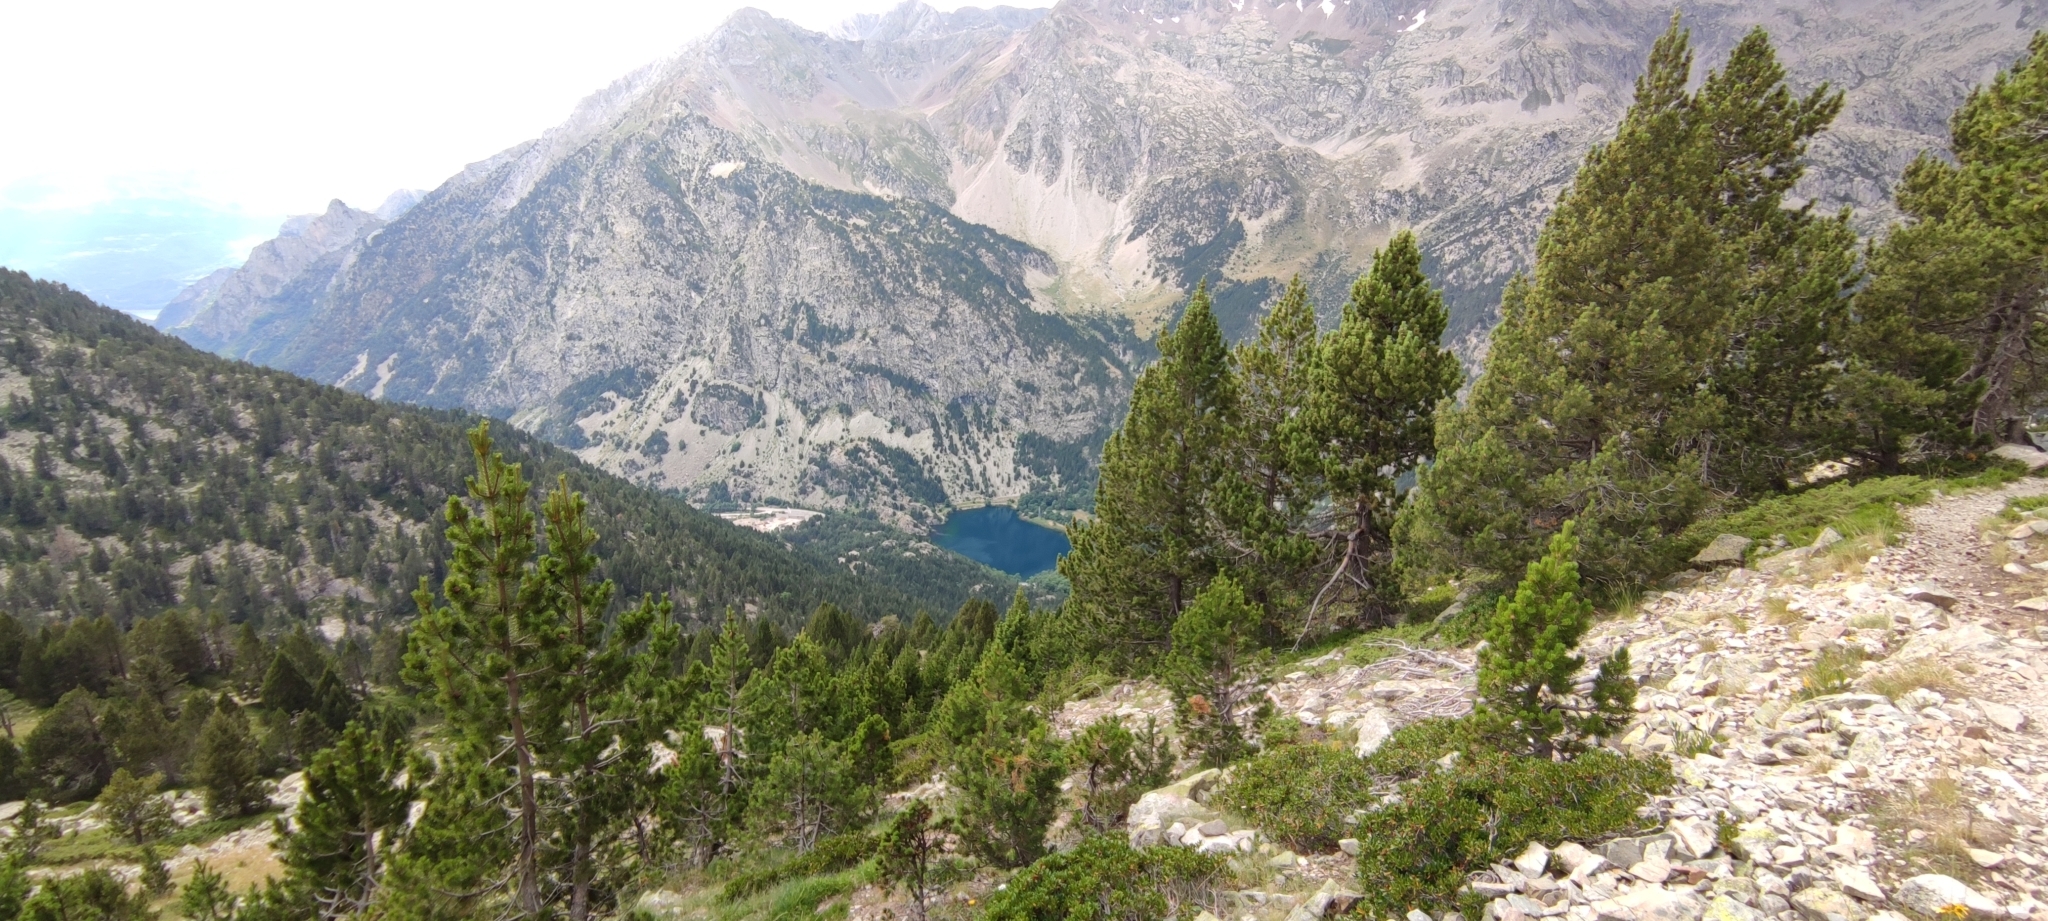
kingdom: Plantae
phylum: Tracheophyta
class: Pinopsida
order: Pinales
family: Pinaceae
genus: Pinus
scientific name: Pinus uncinata
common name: Mountain pine
